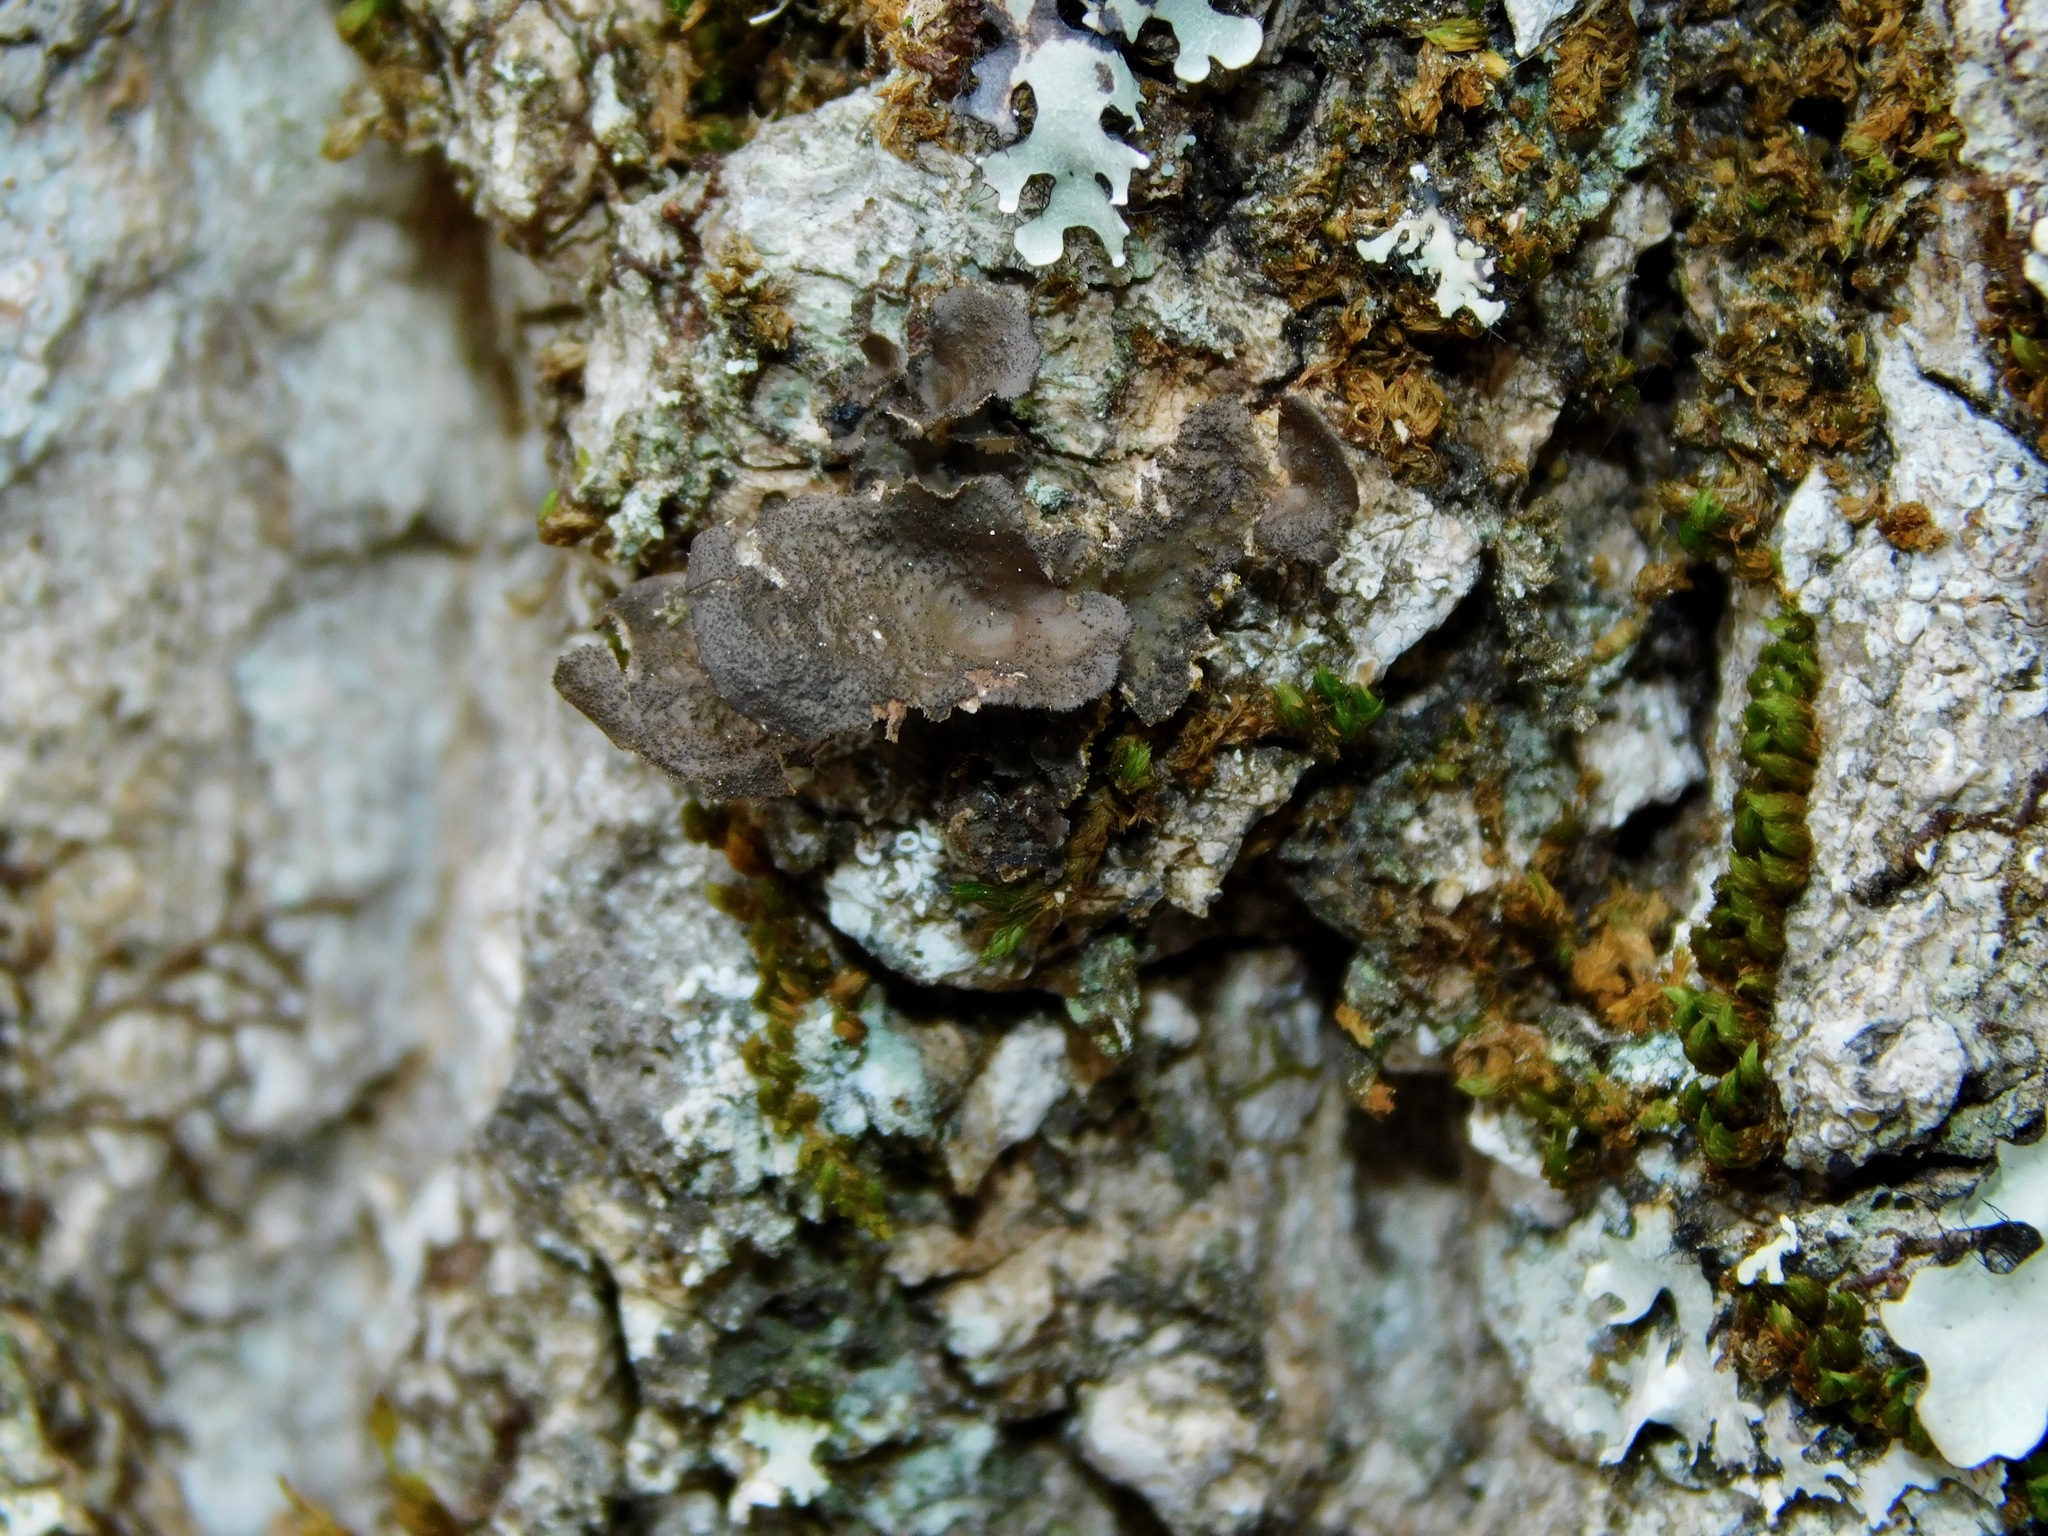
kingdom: Fungi
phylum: Ascomycota
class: Lecanoromycetes
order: Peltigerales
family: Lobariaceae
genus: Sticta
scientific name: Sticta fuliginosa
